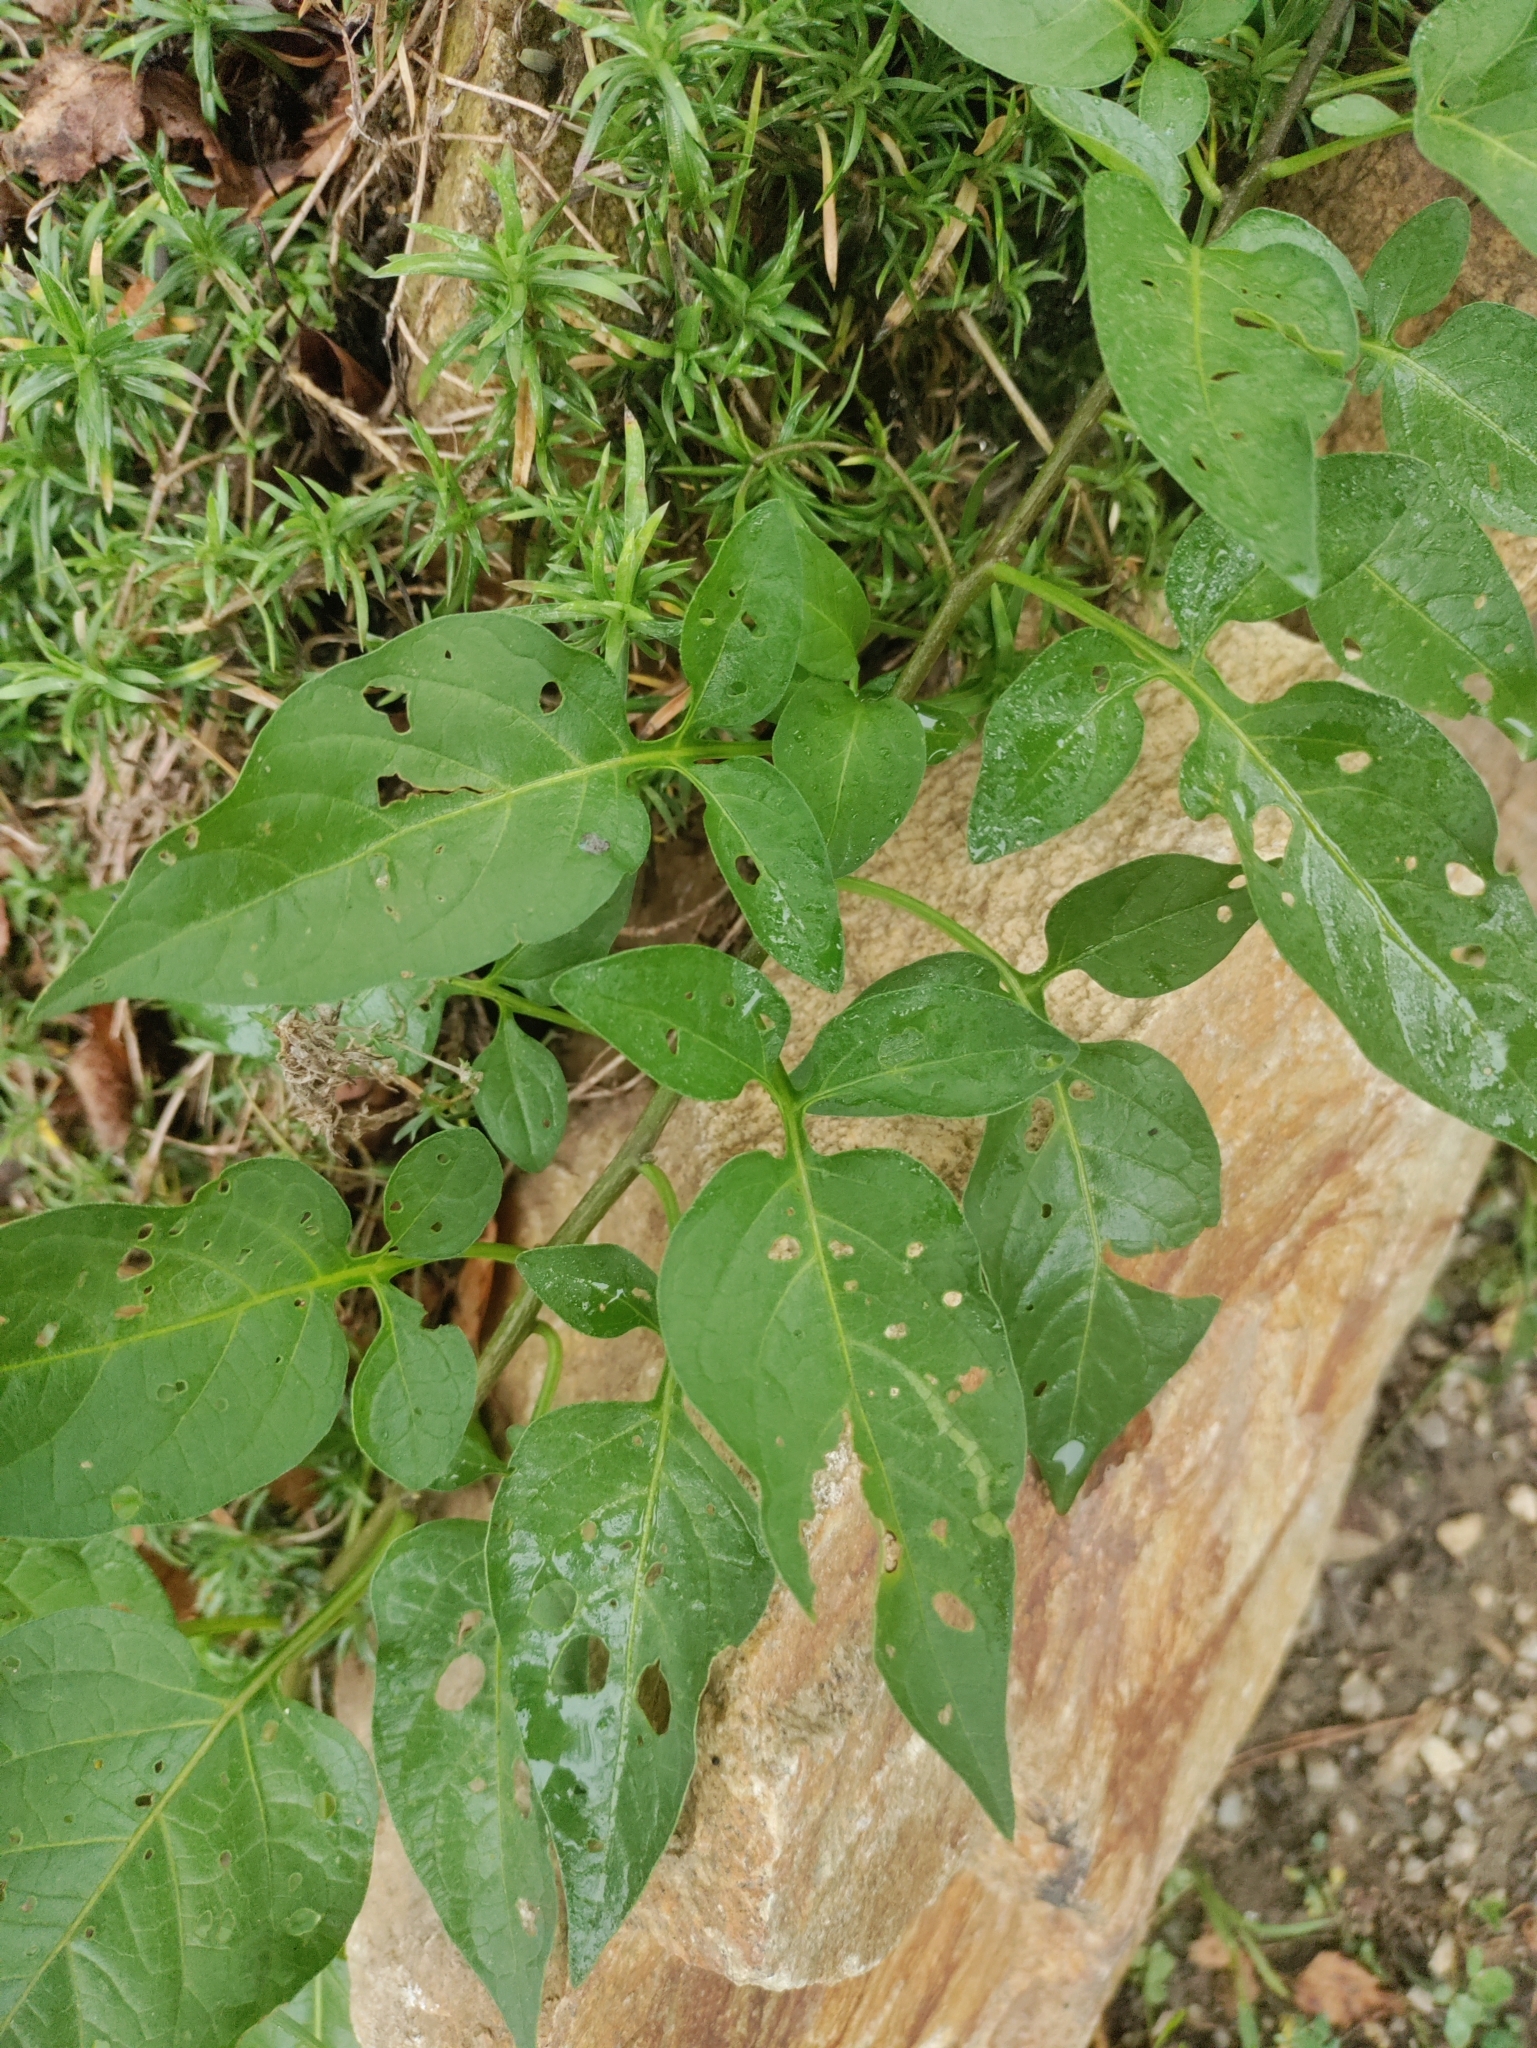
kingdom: Plantae
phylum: Tracheophyta
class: Magnoliopsida
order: Solanales
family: Solanaceae
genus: Solanum
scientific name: Solanum dulcamara
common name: Climbing nightshade
